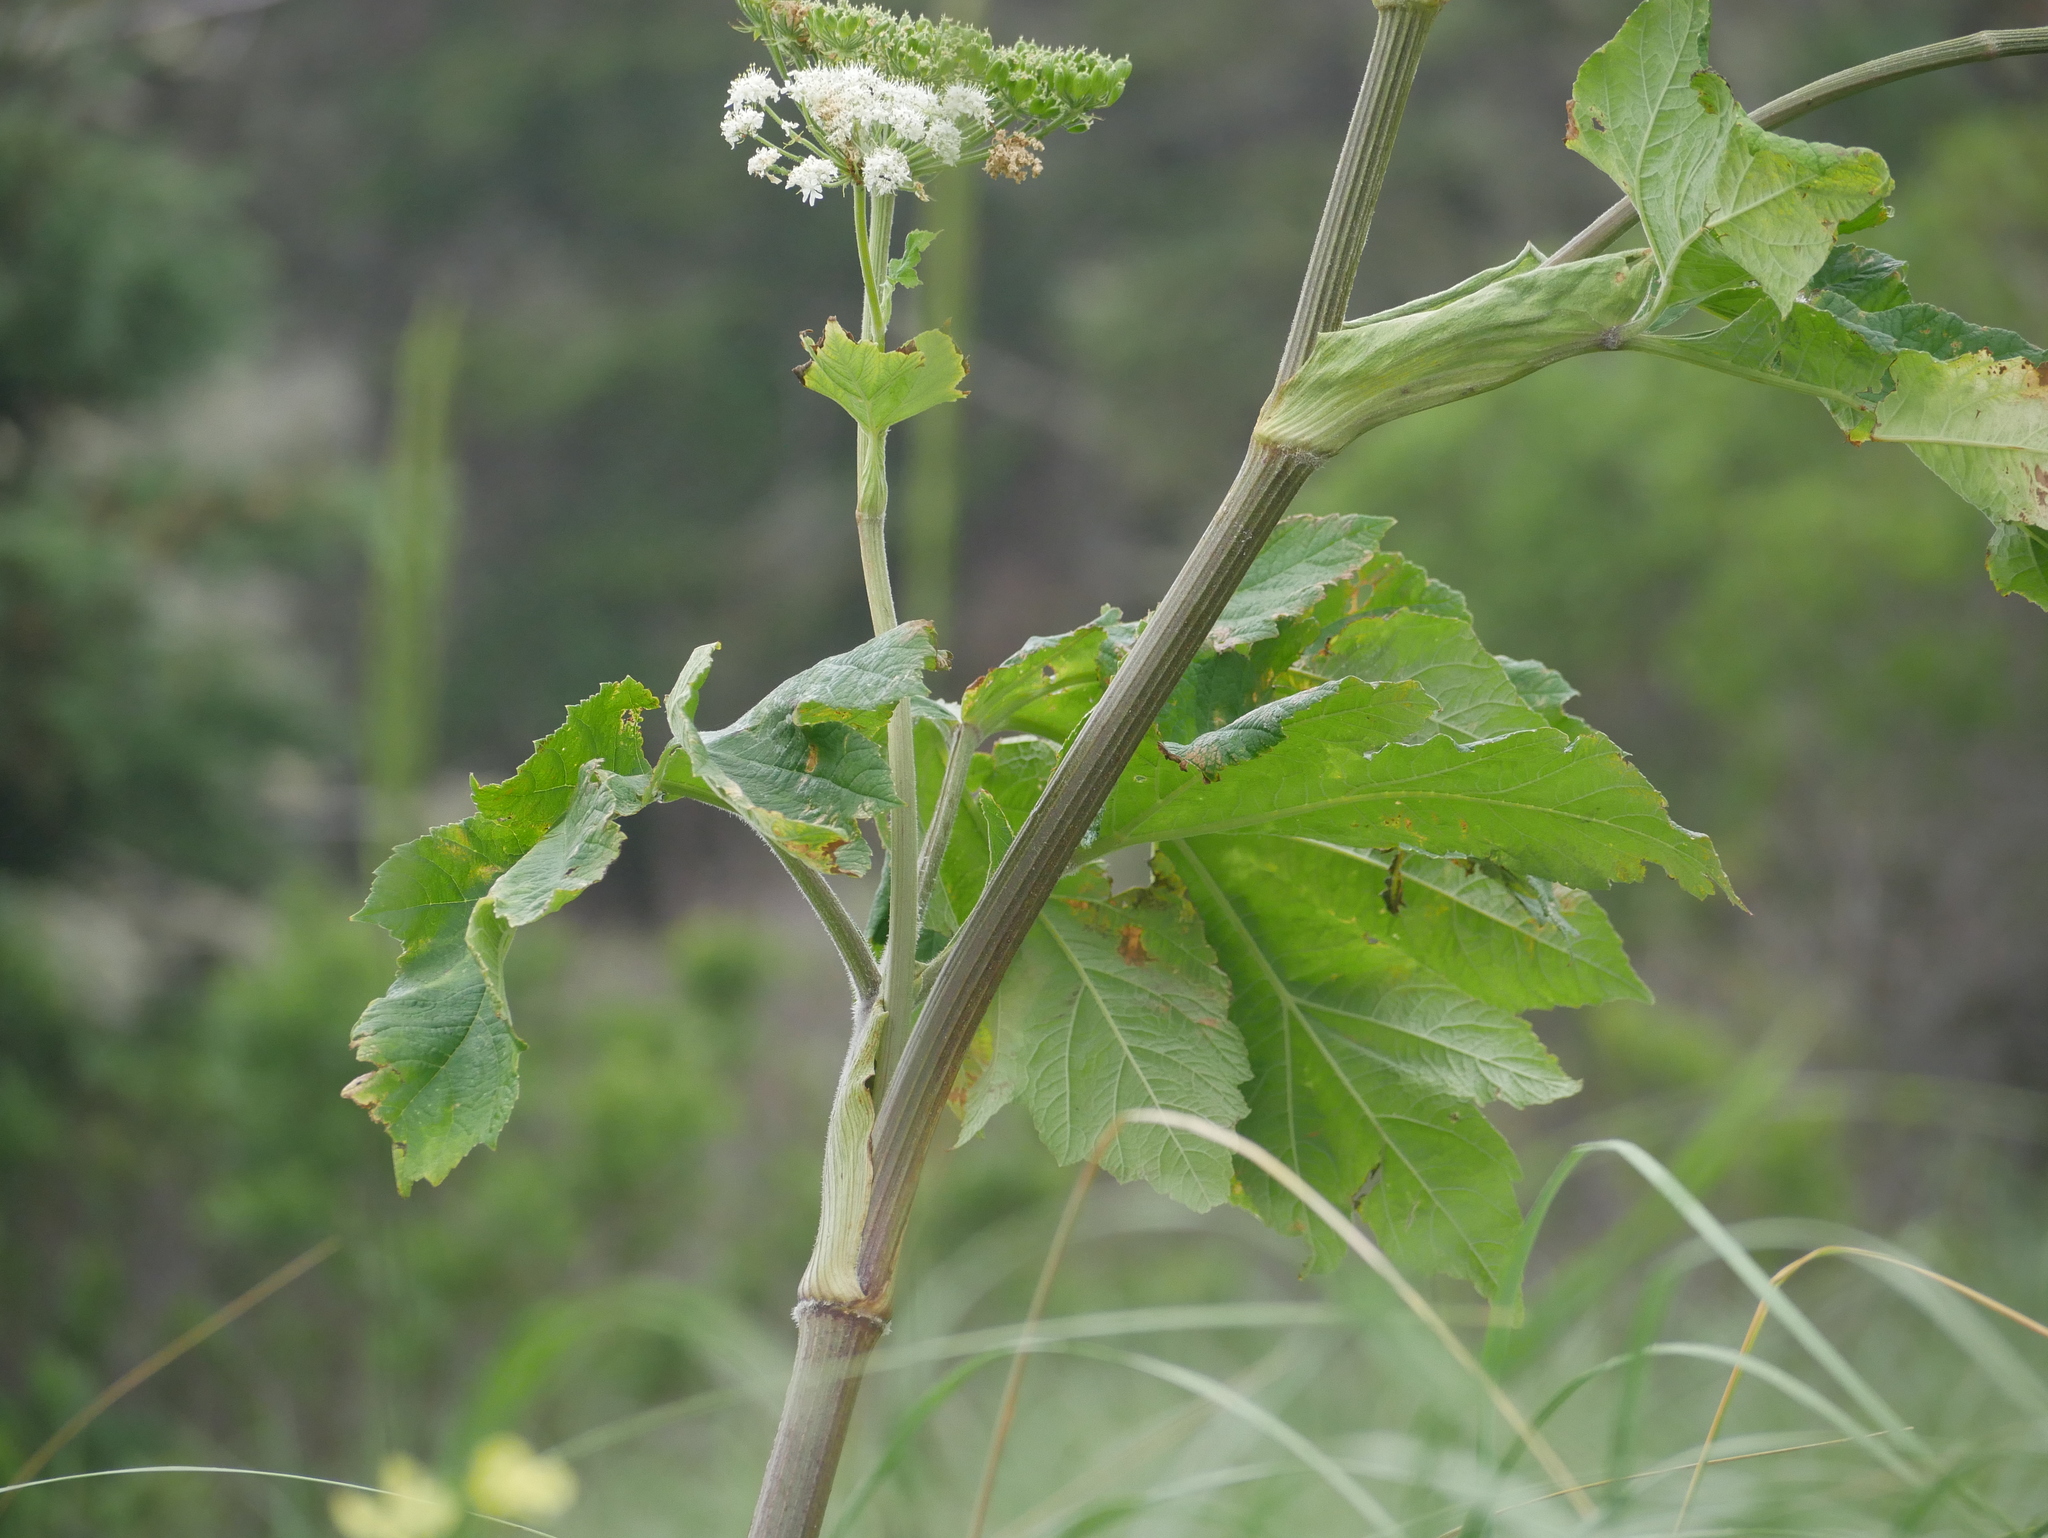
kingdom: Plantae
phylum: Tracheophyta
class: Magnoliopsida
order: Apiales
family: Apiaceae
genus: Heracleum
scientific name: Heracleum maximum
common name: American cow parsnip
